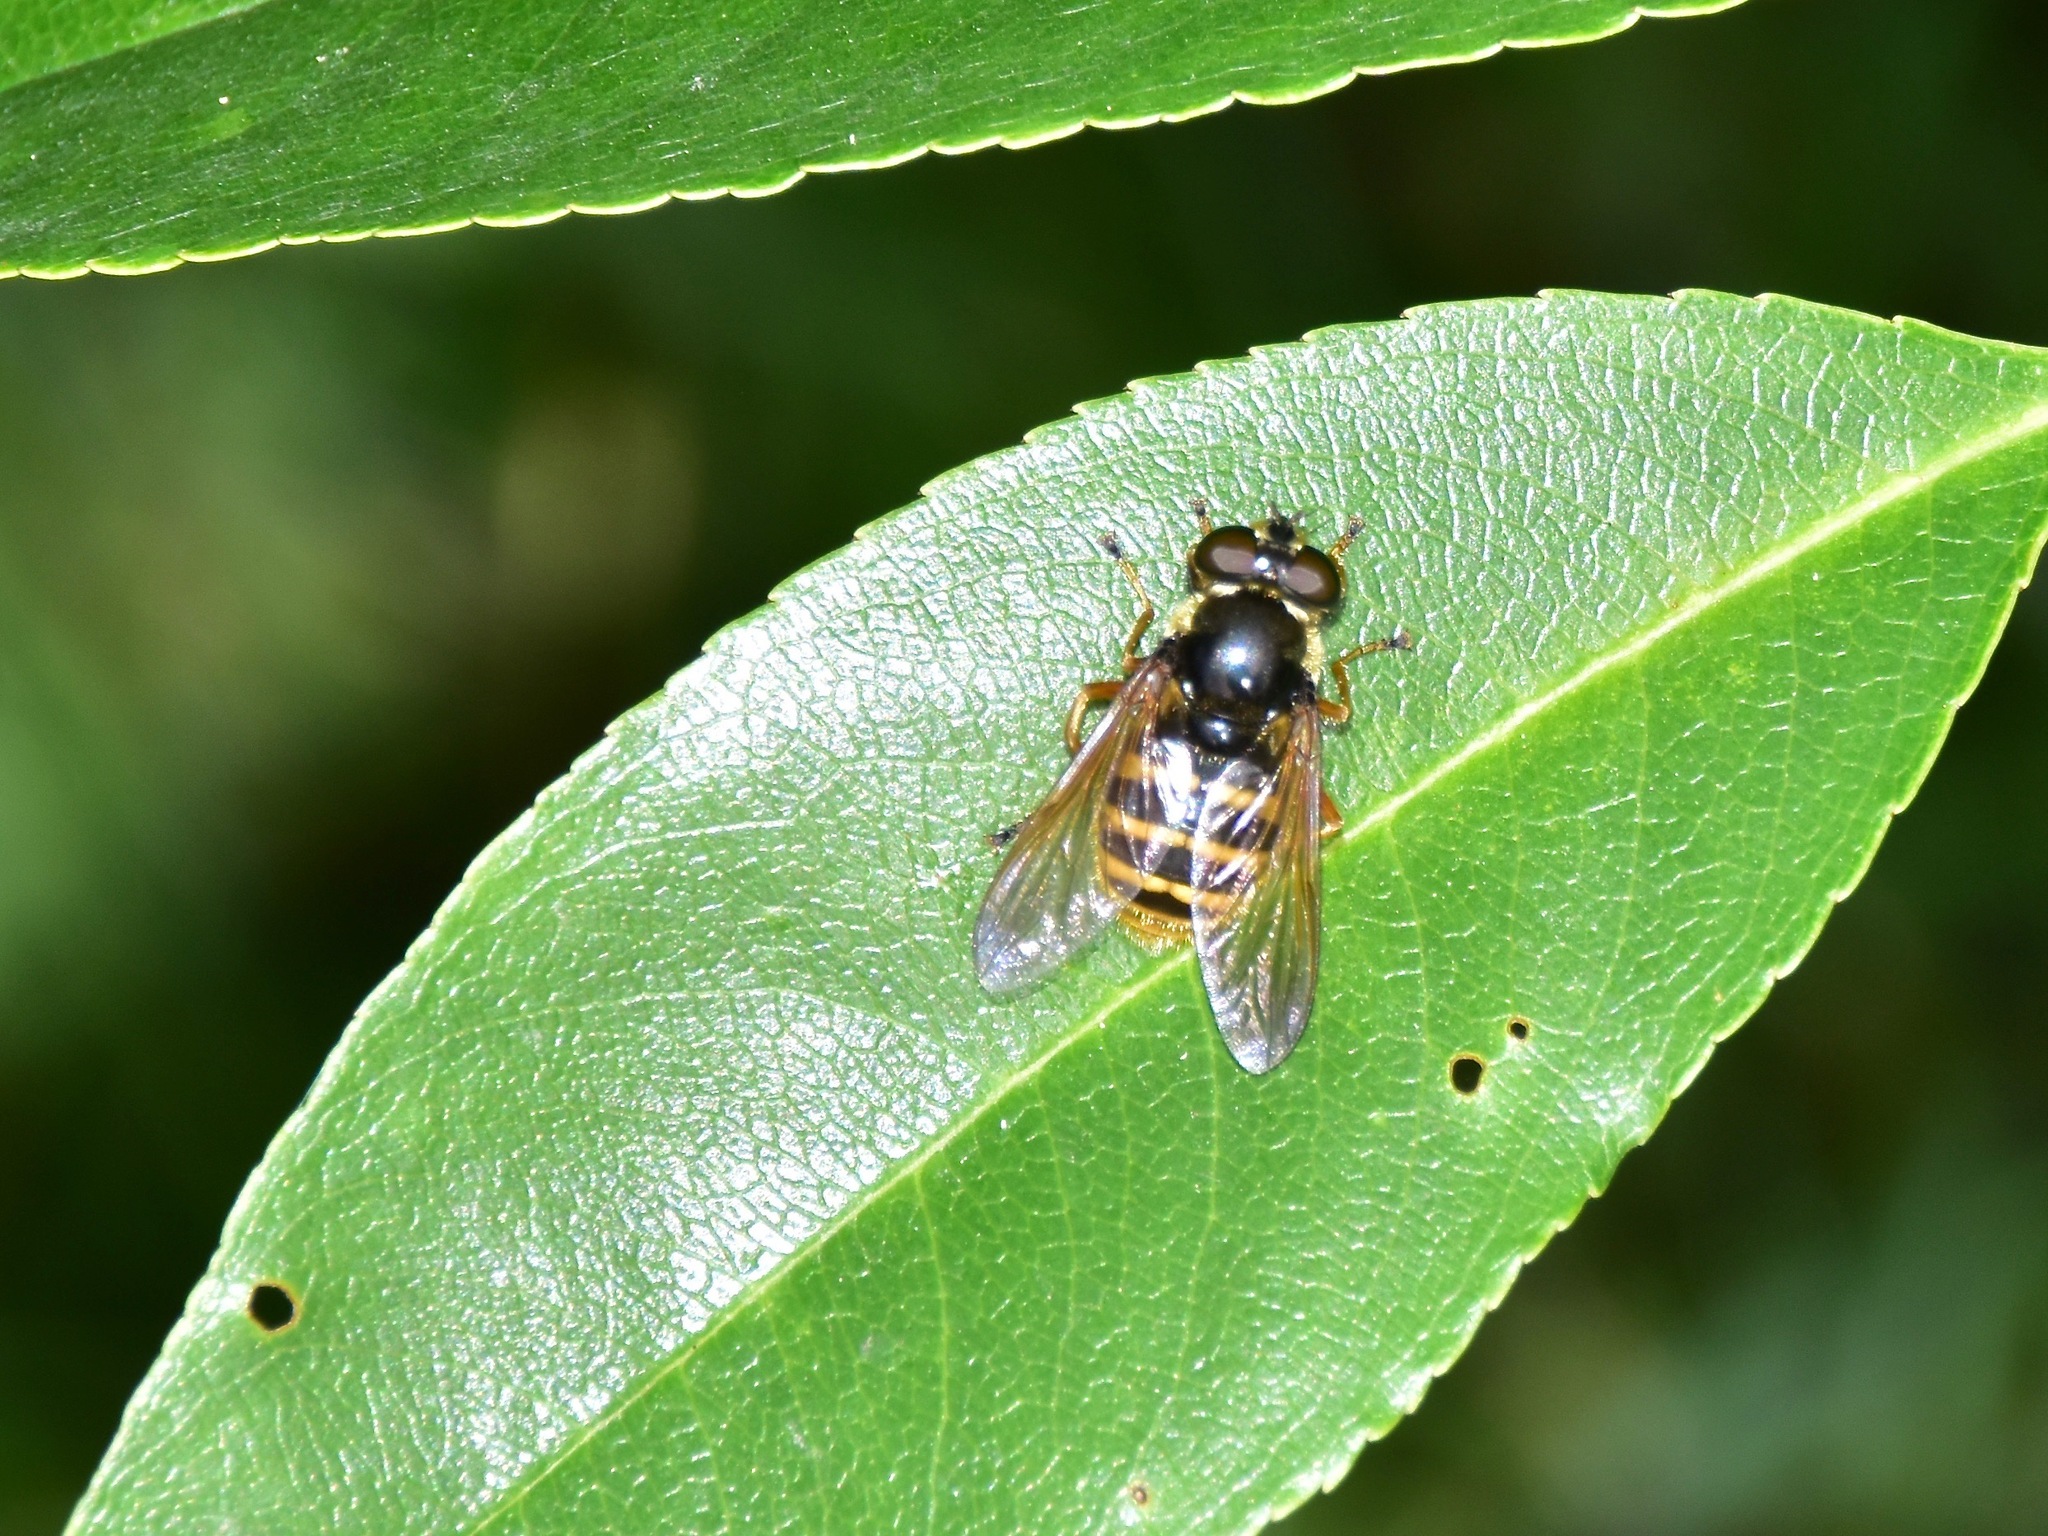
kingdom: Animalia
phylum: Arthropoda
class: Insecta
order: Diptera
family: Syrphidae
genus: Sericomyia
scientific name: Sericomyia silentis
